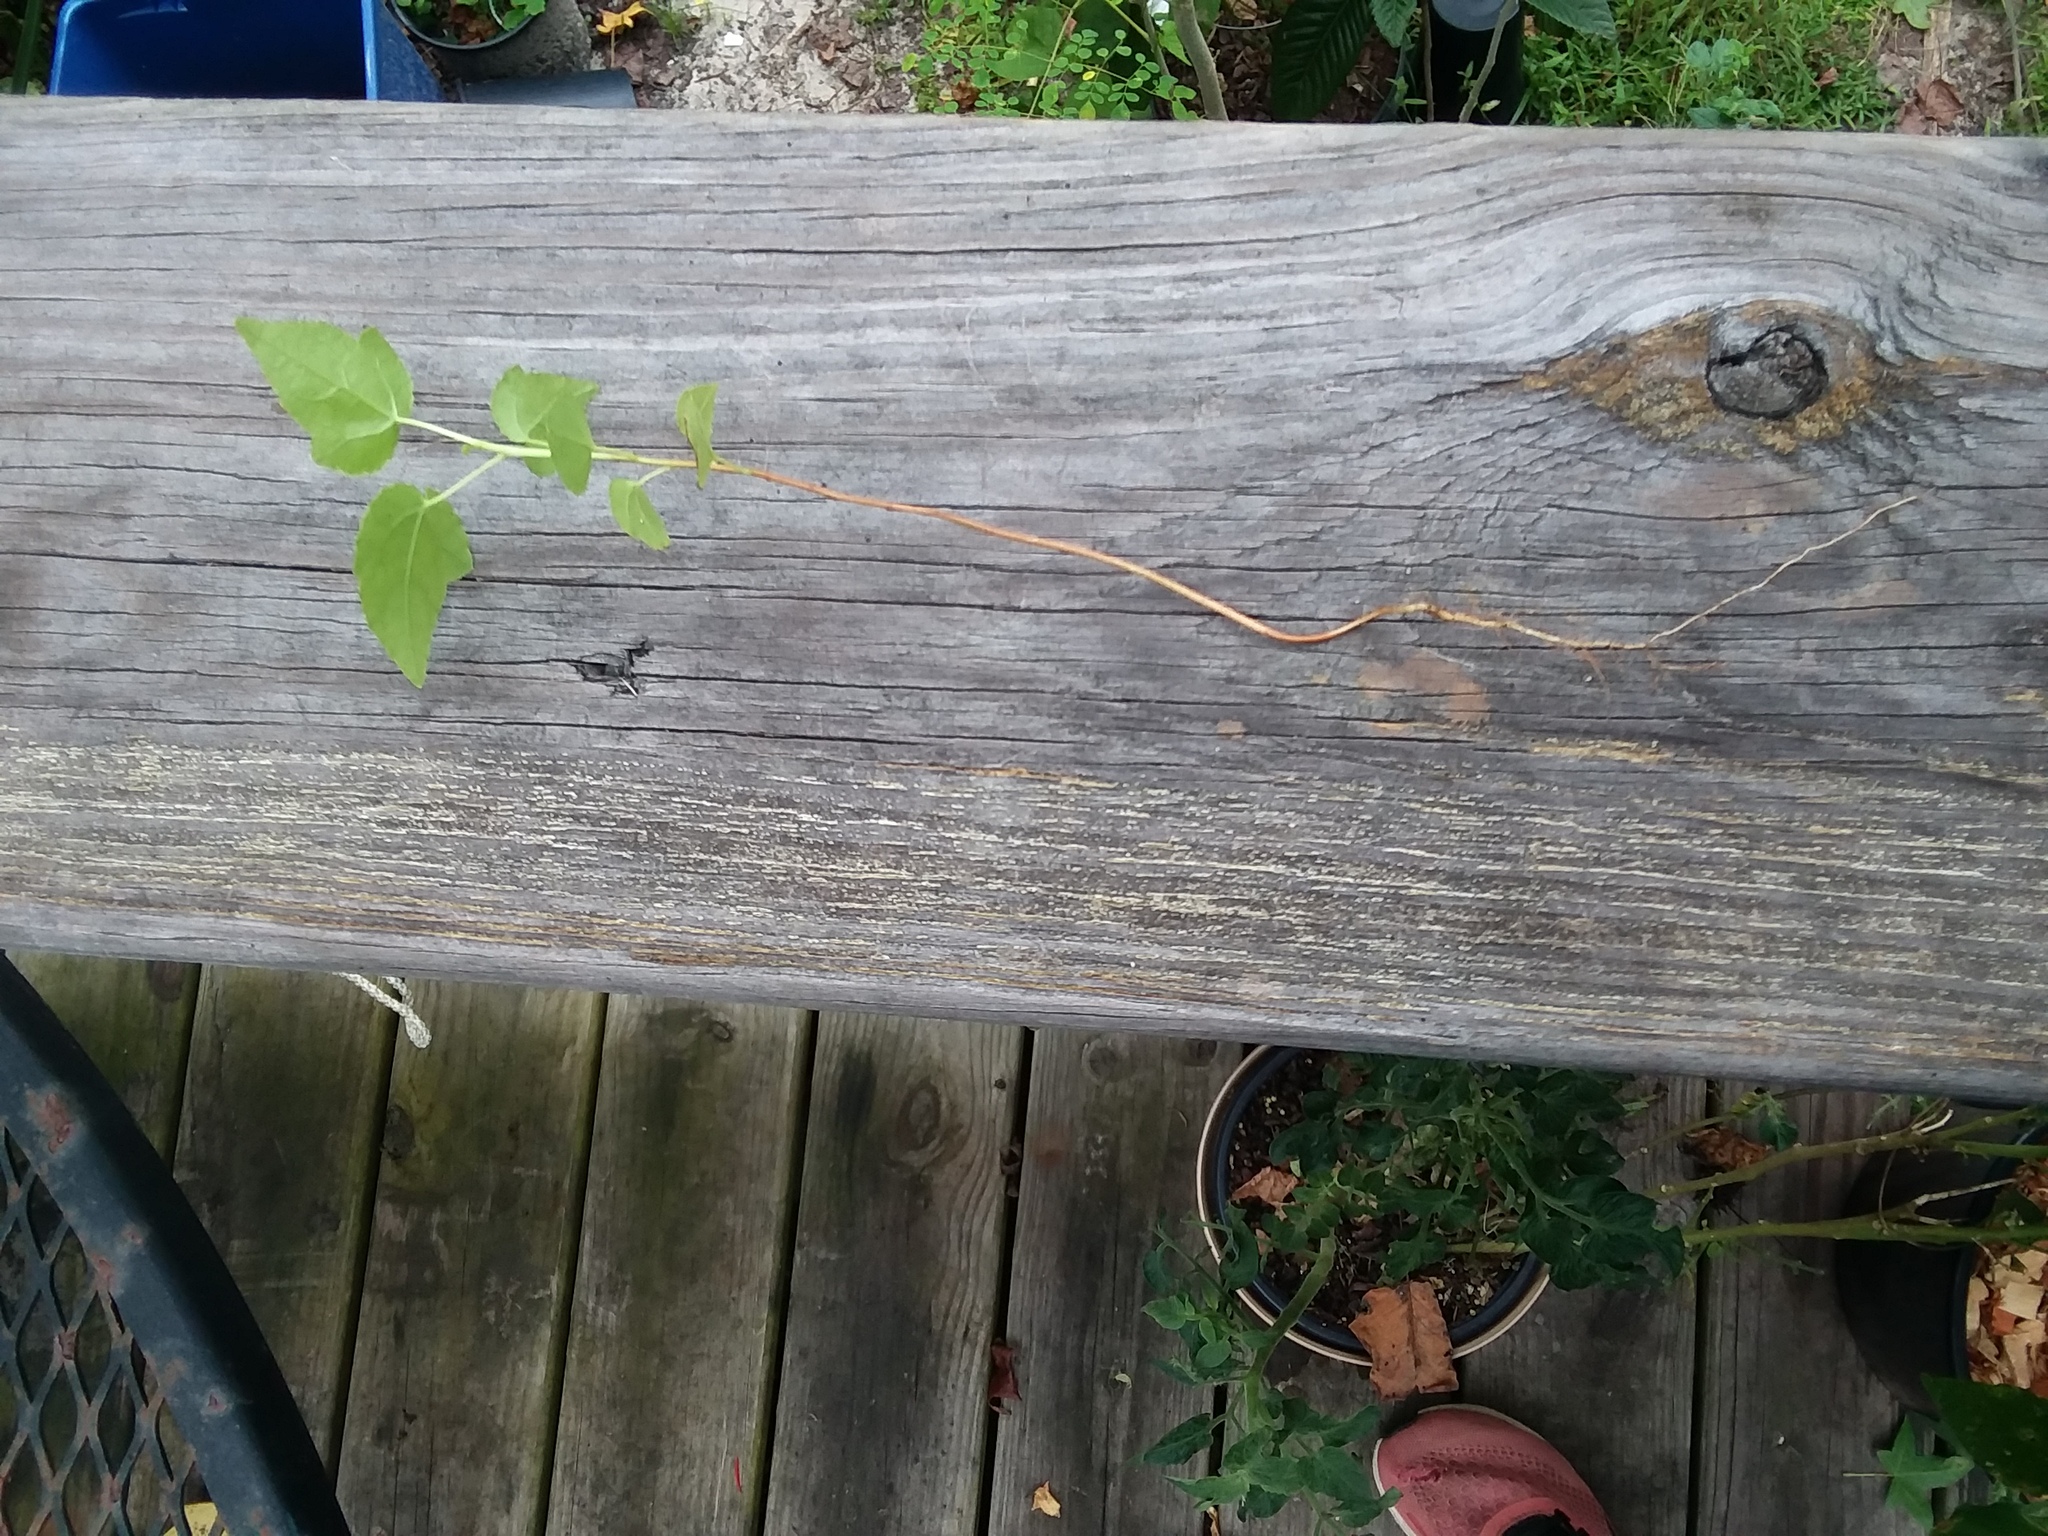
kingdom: Plantae
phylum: Tracheophyta
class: Magnoliopsida
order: Saxifragales
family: Altingiaceae
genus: Liquidambar
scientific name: Liquidambar styraciflua
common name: Sweet gum
